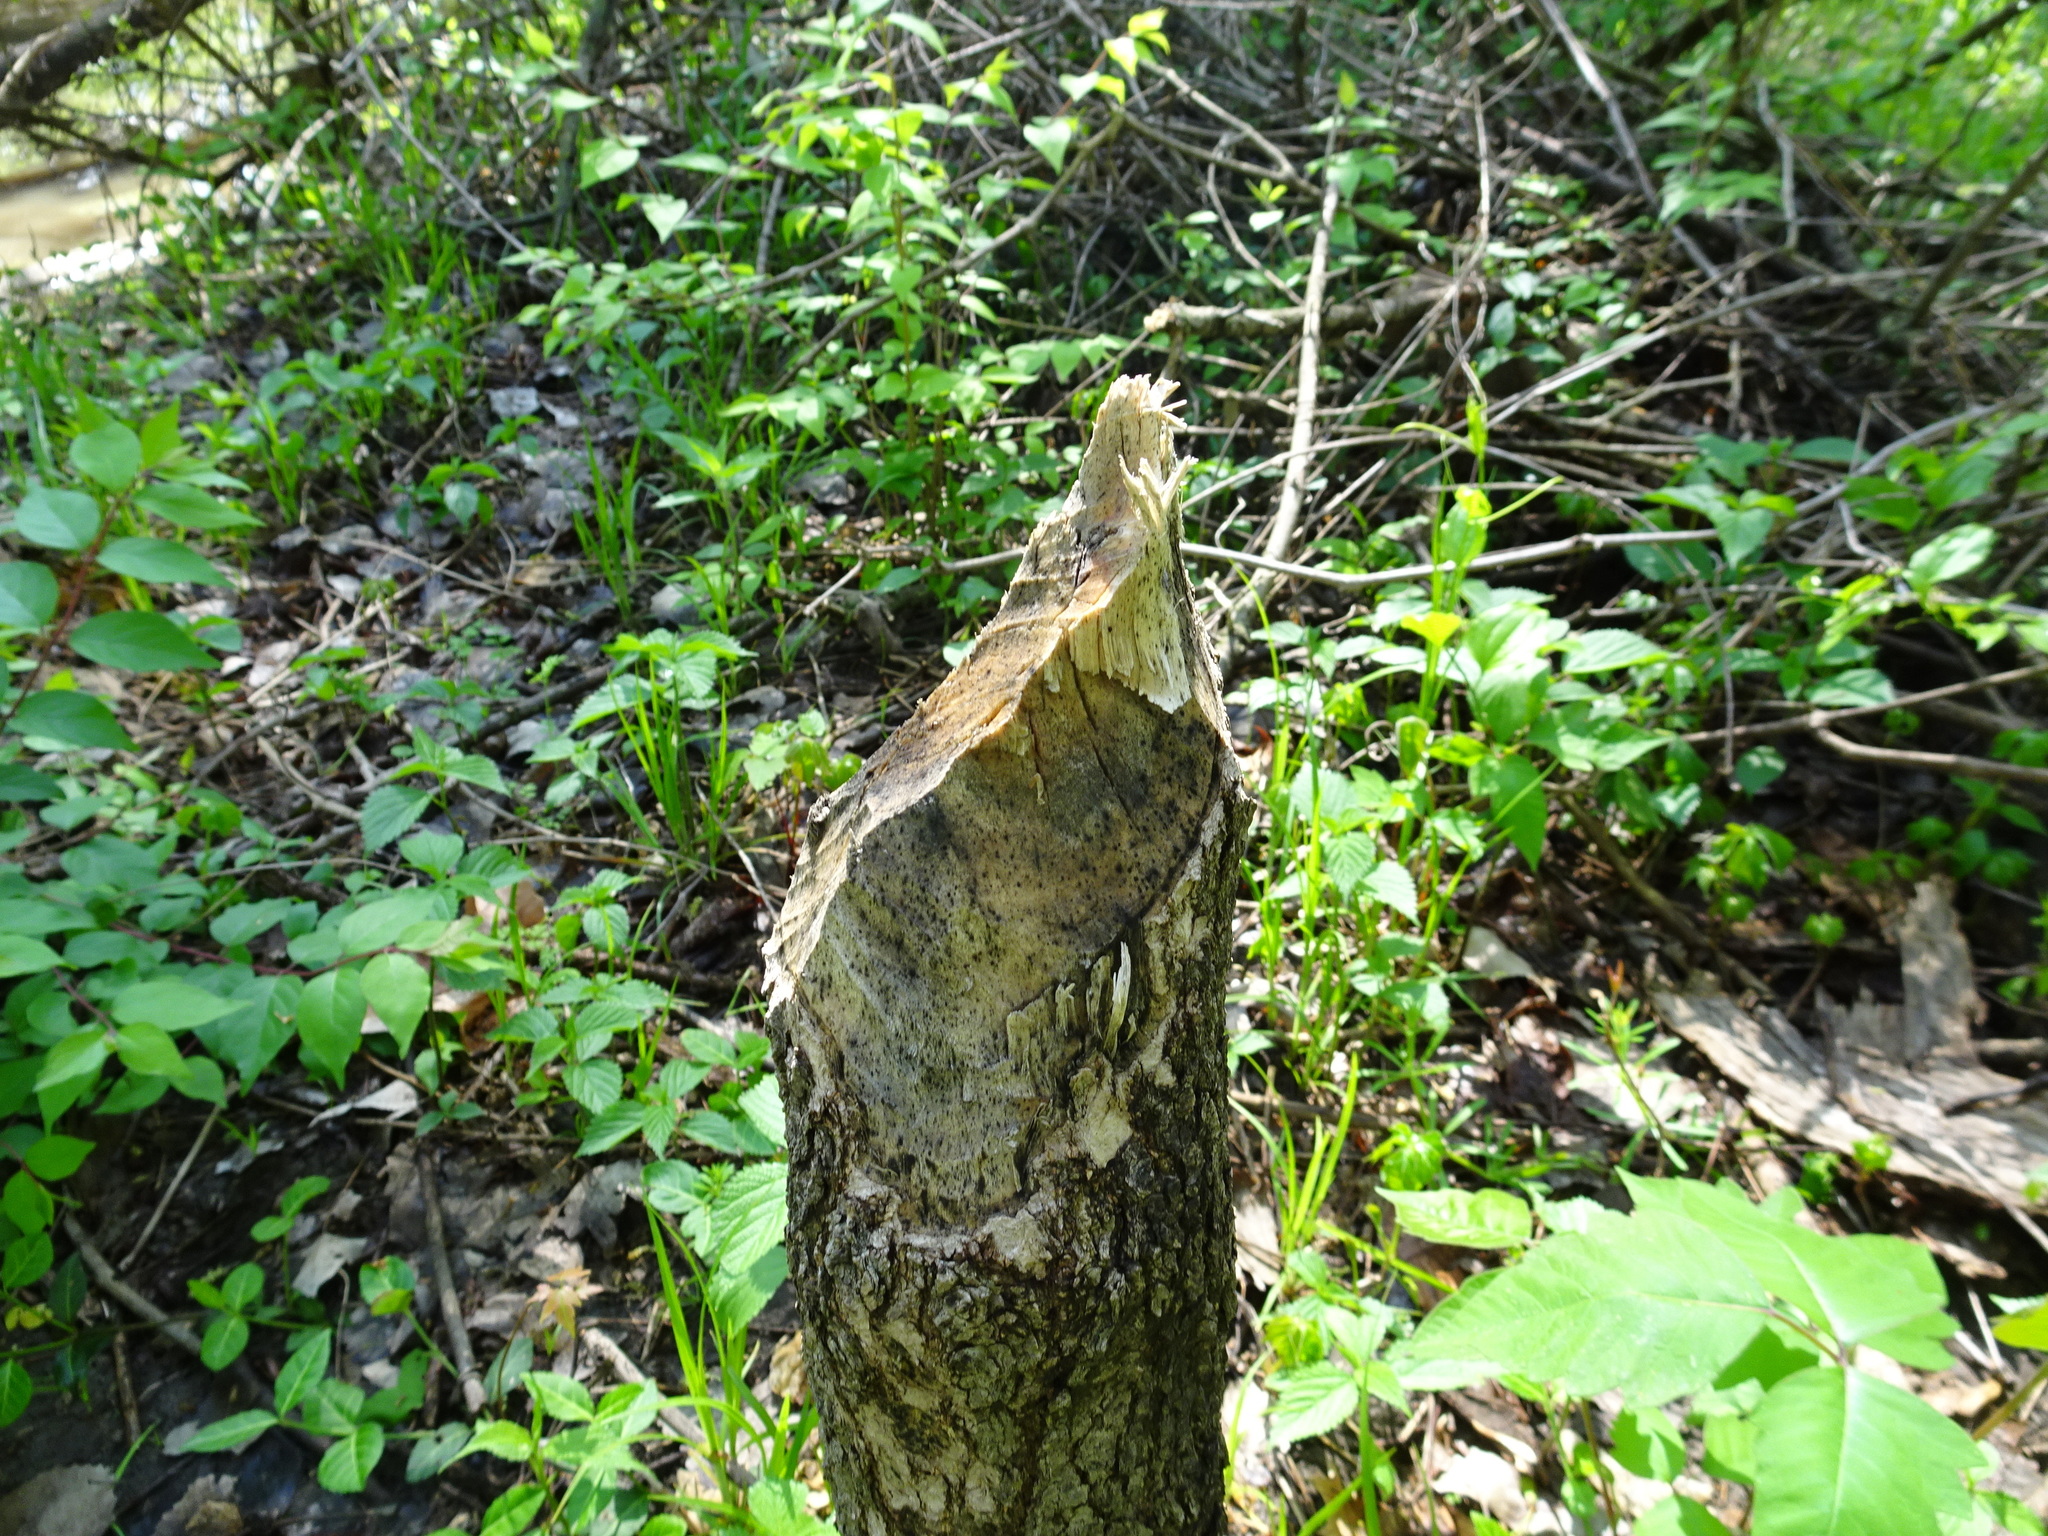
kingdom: Animalia
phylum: Chordata
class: Mammalia
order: Rodentia
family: Castoridae
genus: Castor
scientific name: Castor canadensis
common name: American beaver
